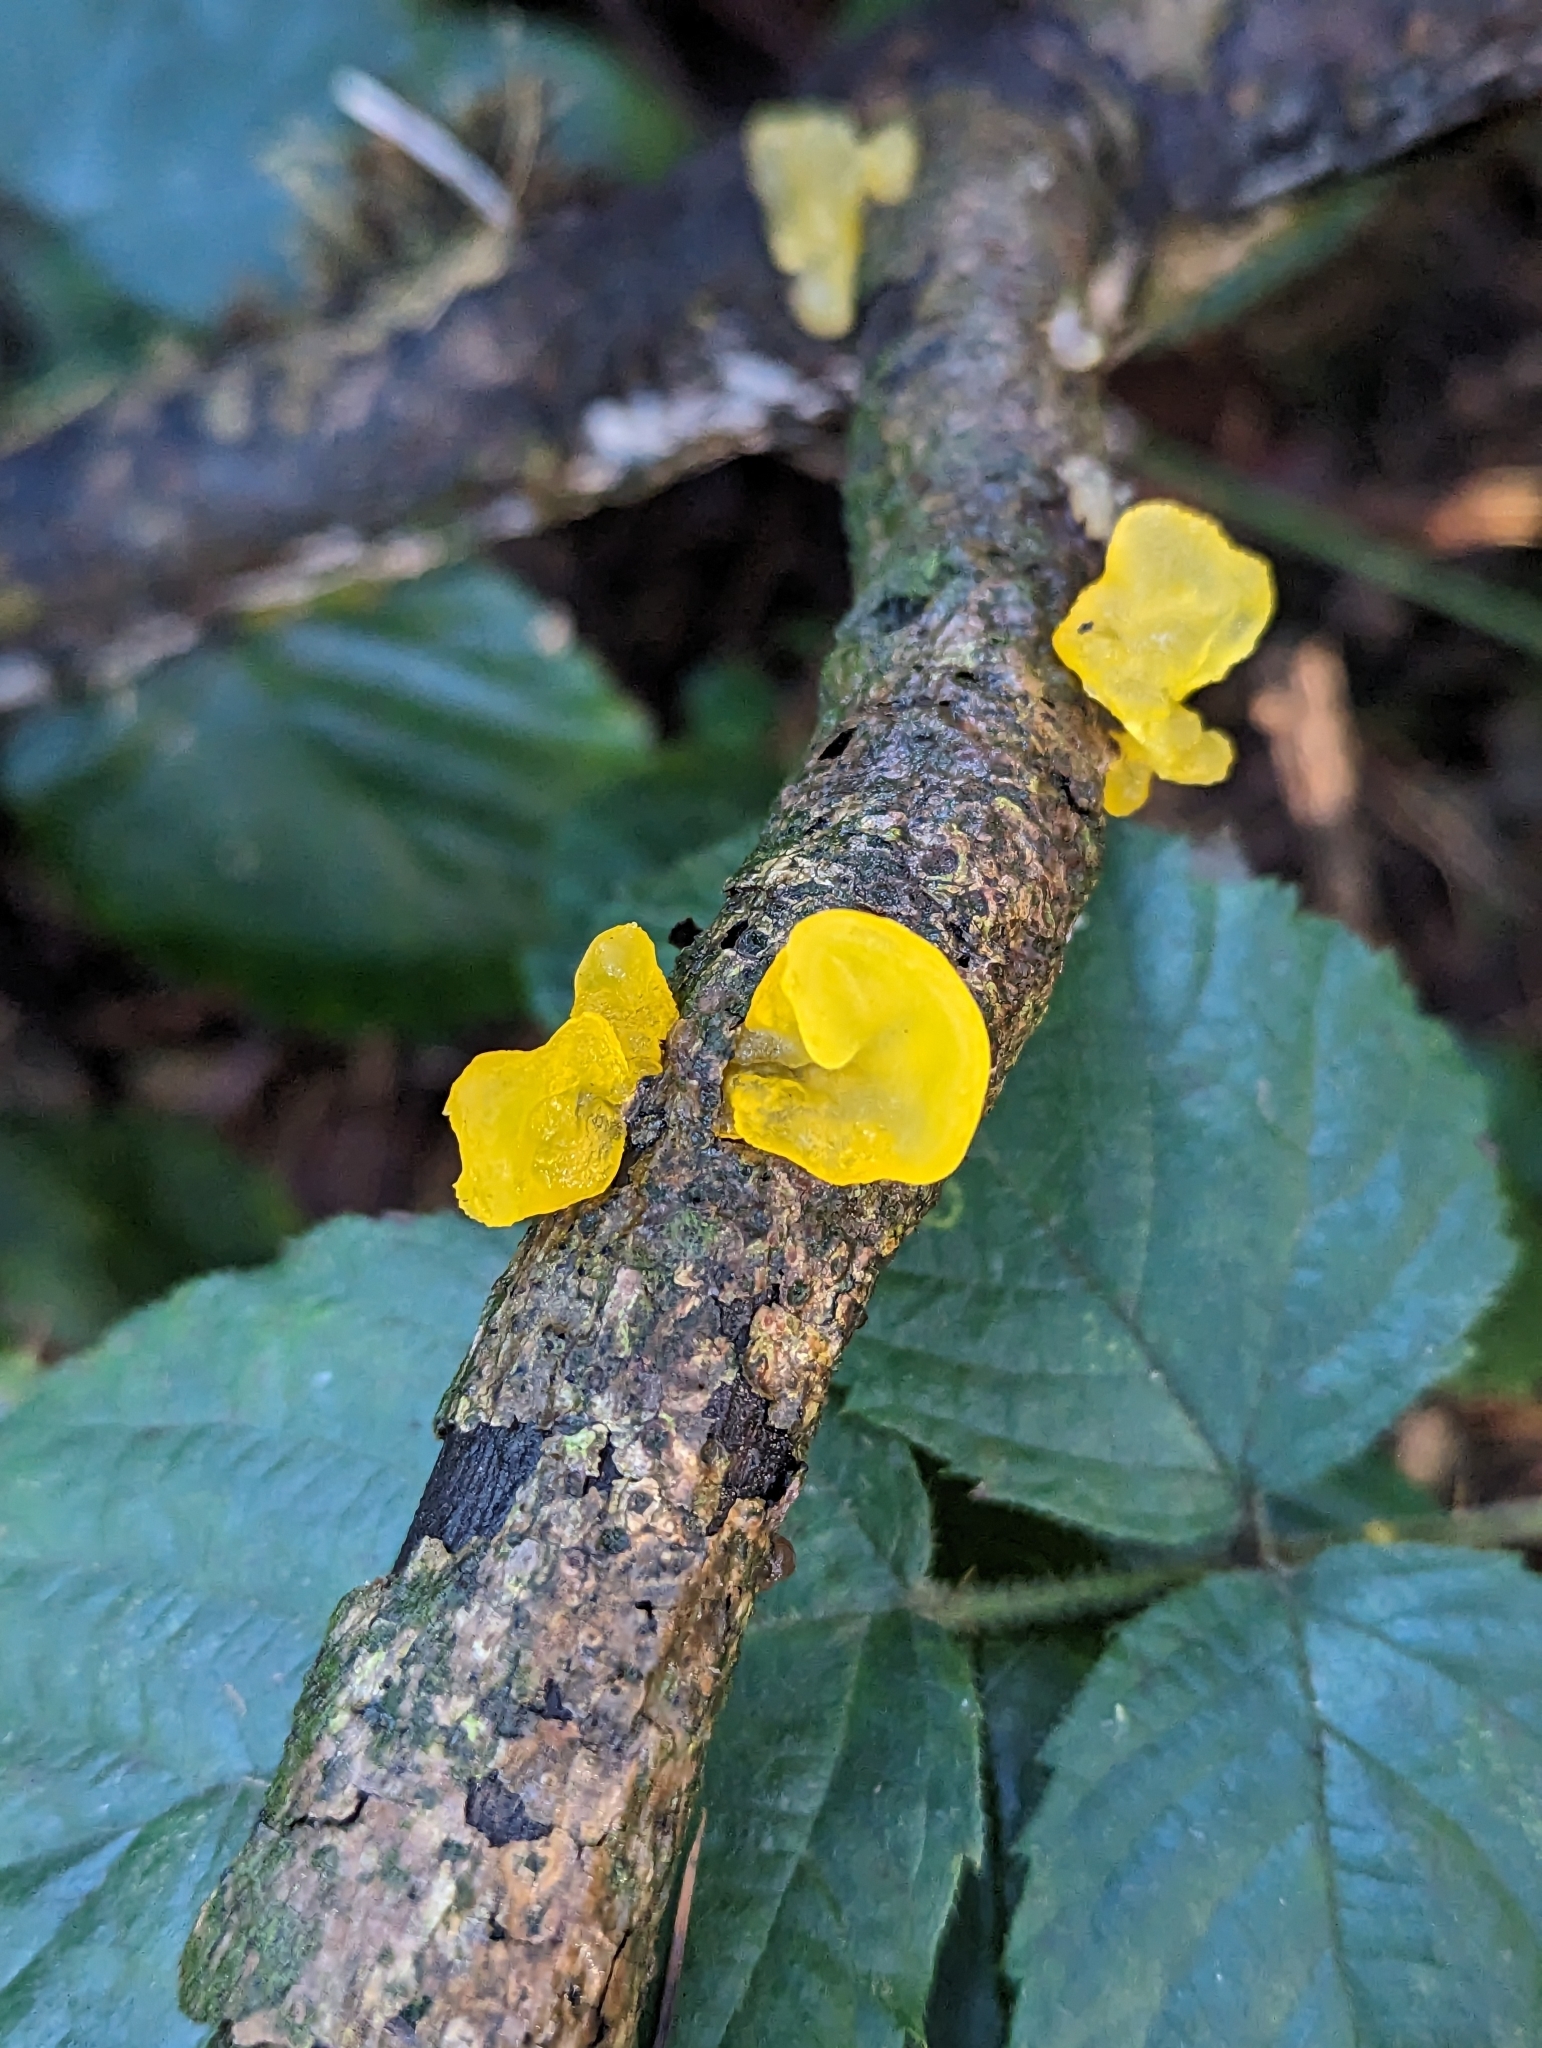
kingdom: Fungi
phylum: Basidiomycota
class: Tremellomycetes
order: Tremellales
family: Tremellaceae
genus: Tremella
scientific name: Tremella mesenterica
